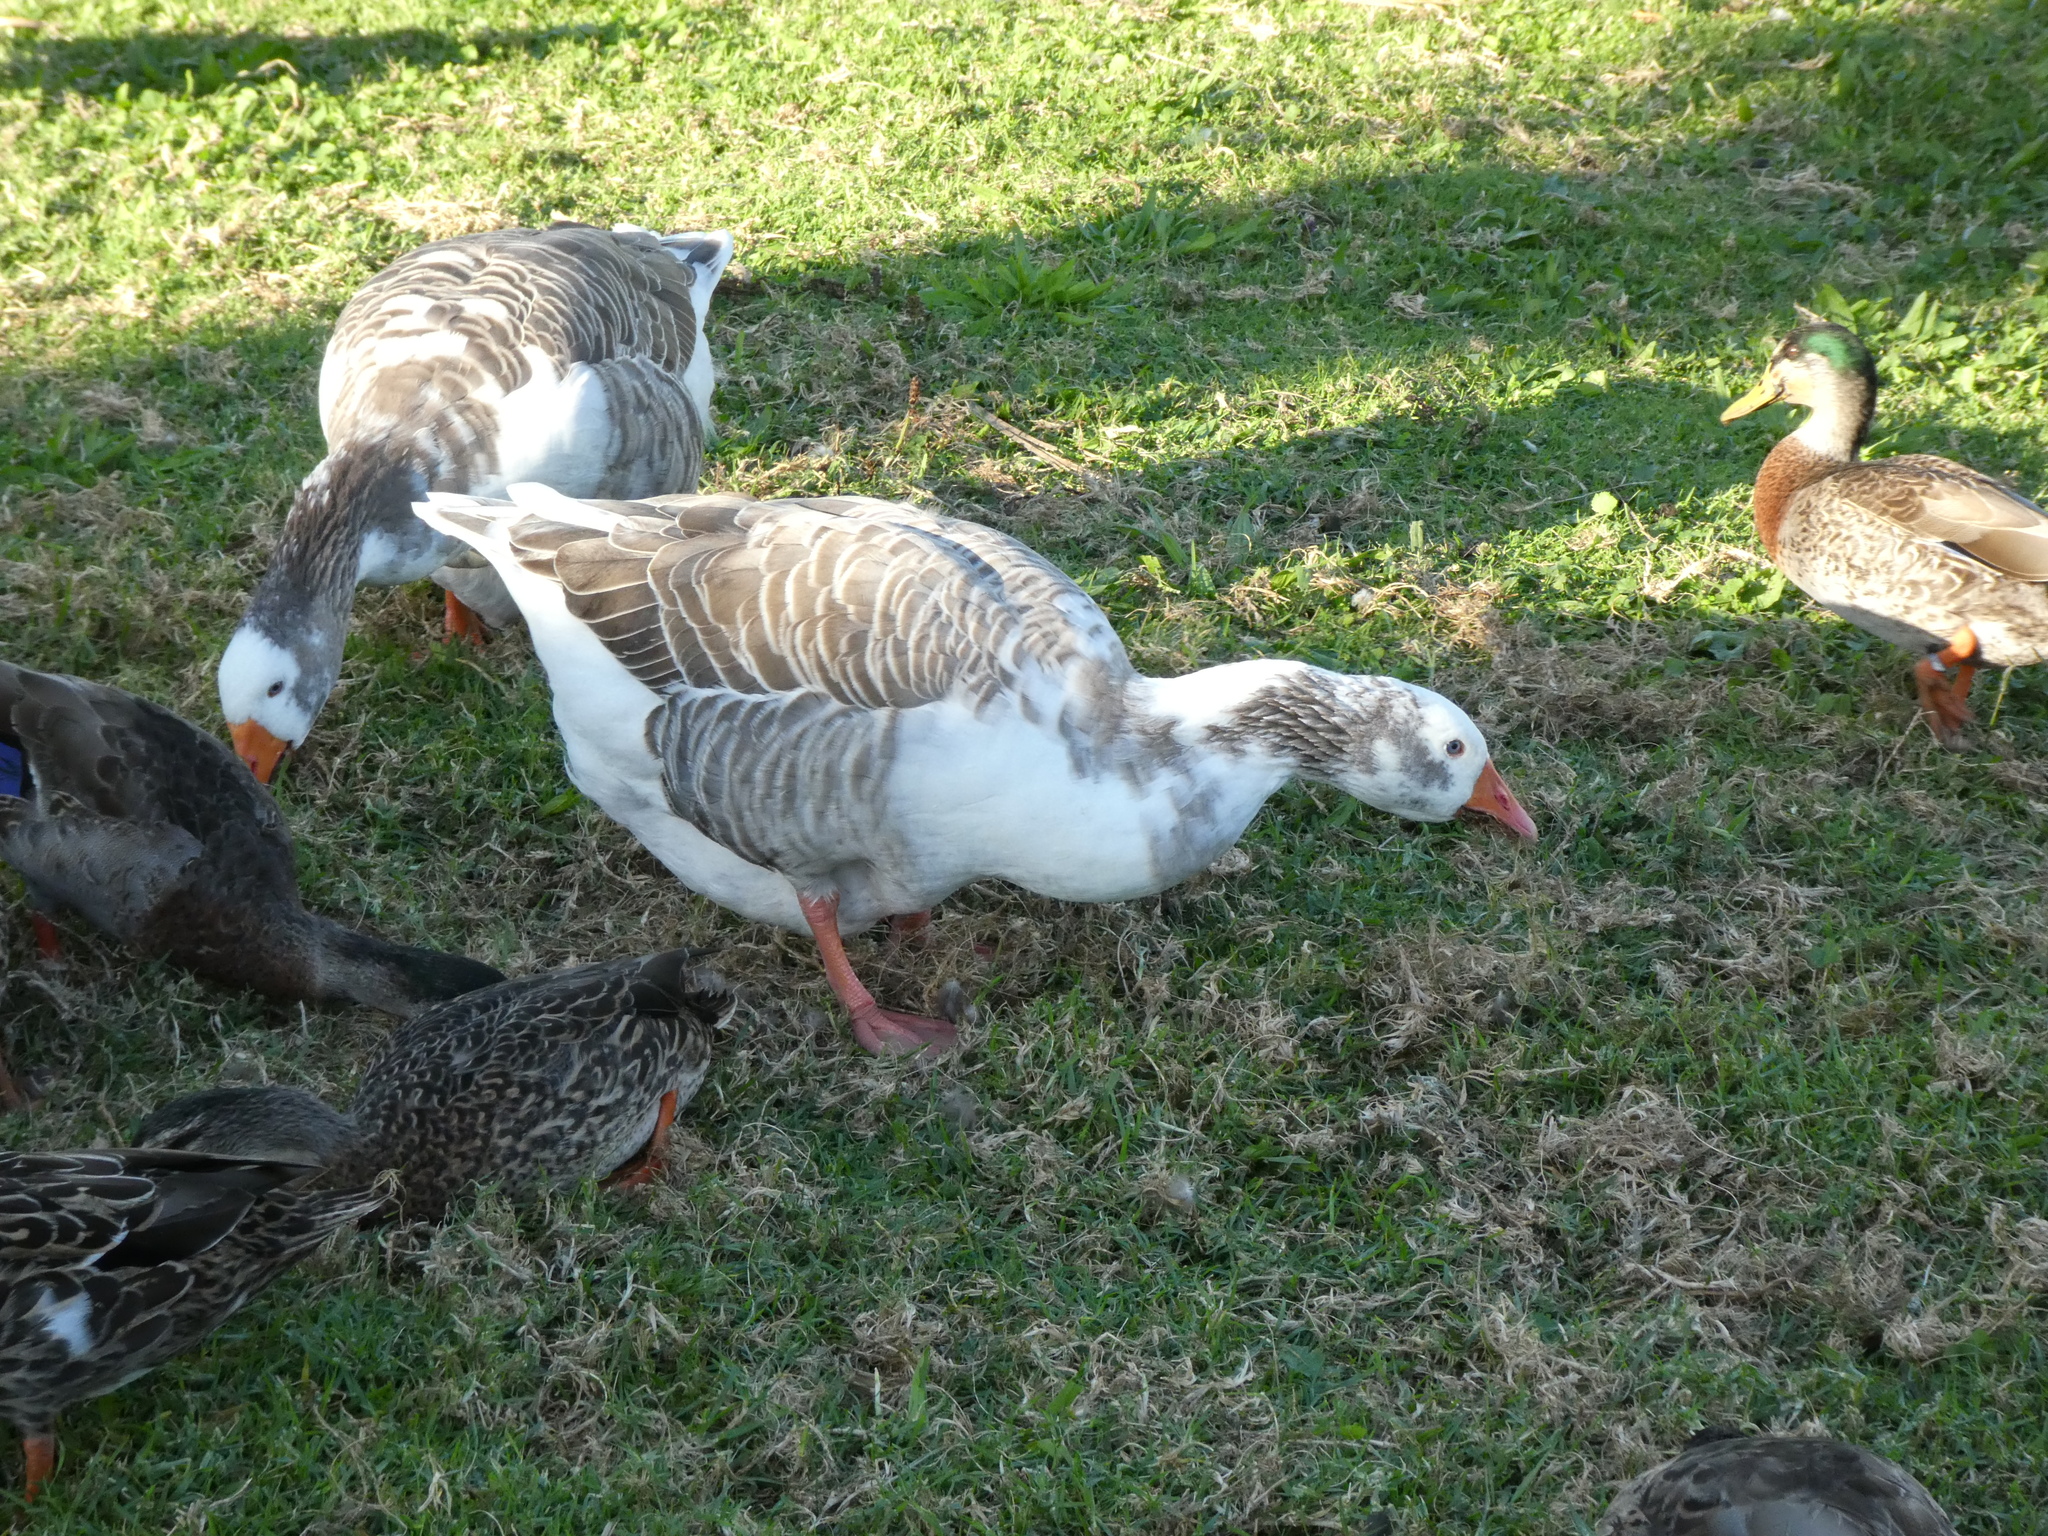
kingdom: Animalia
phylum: Chordata
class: Aves
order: Anseriformes
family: Anatidae
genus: Anser
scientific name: Anser anser
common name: Greylag goose
